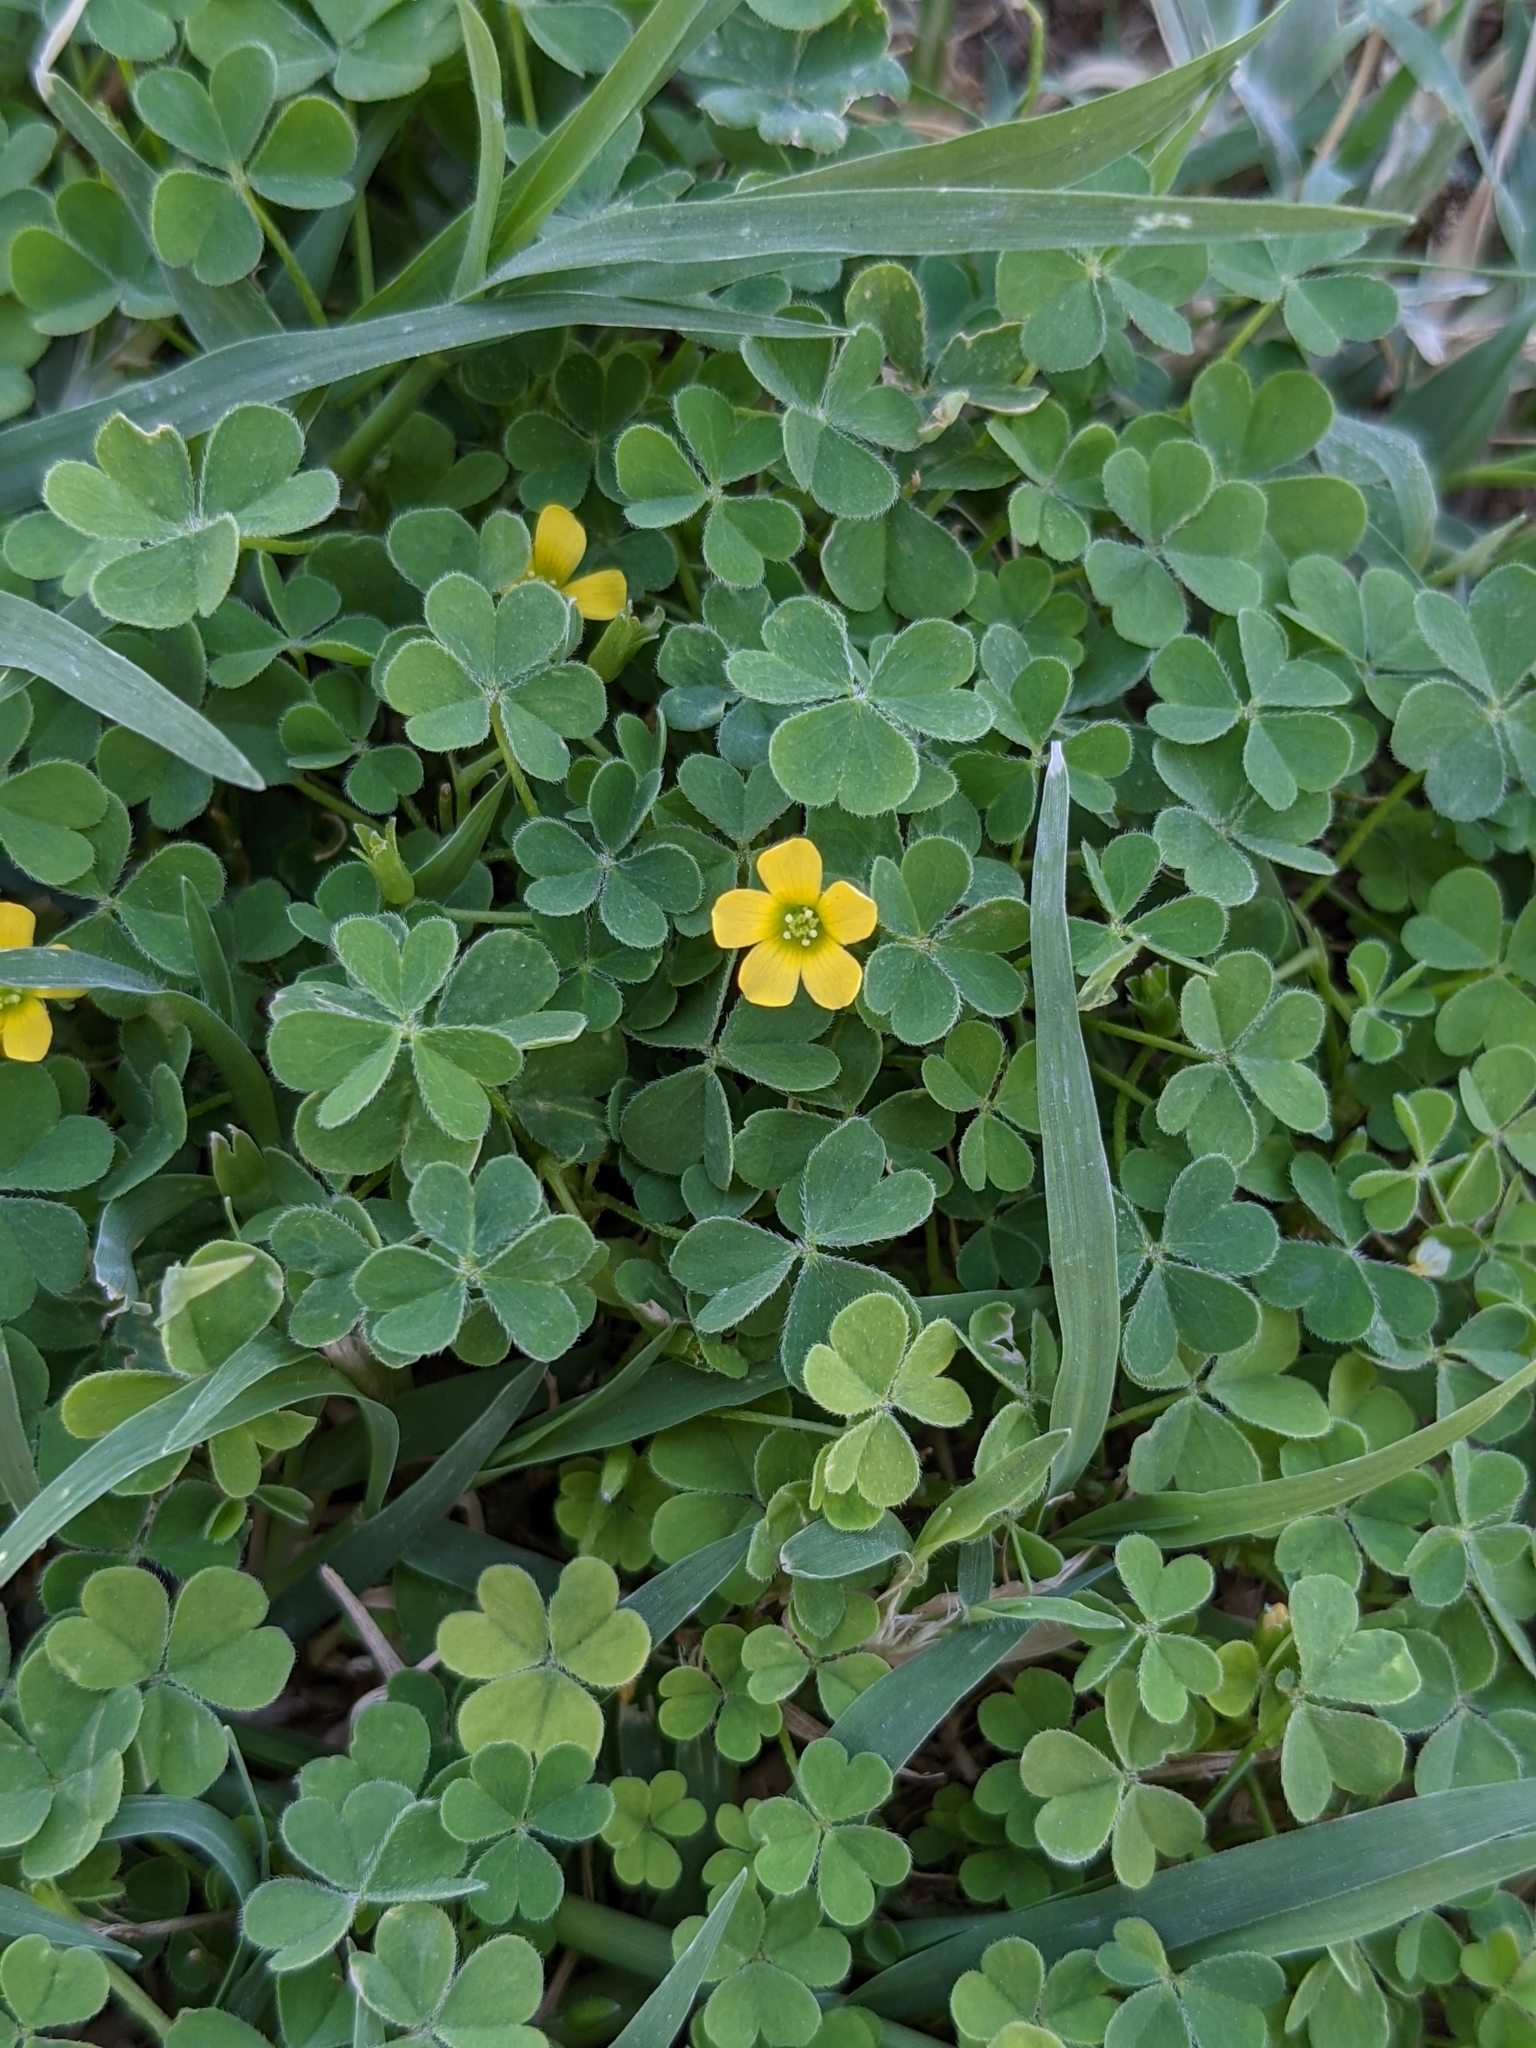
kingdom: Plantae
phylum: Tracheophyta
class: Magnoliopsida
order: Oxalidales
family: Oxalidaceae
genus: Oxalis
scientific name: Oxalis corniculata
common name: Procumbent yellow-sorrel
